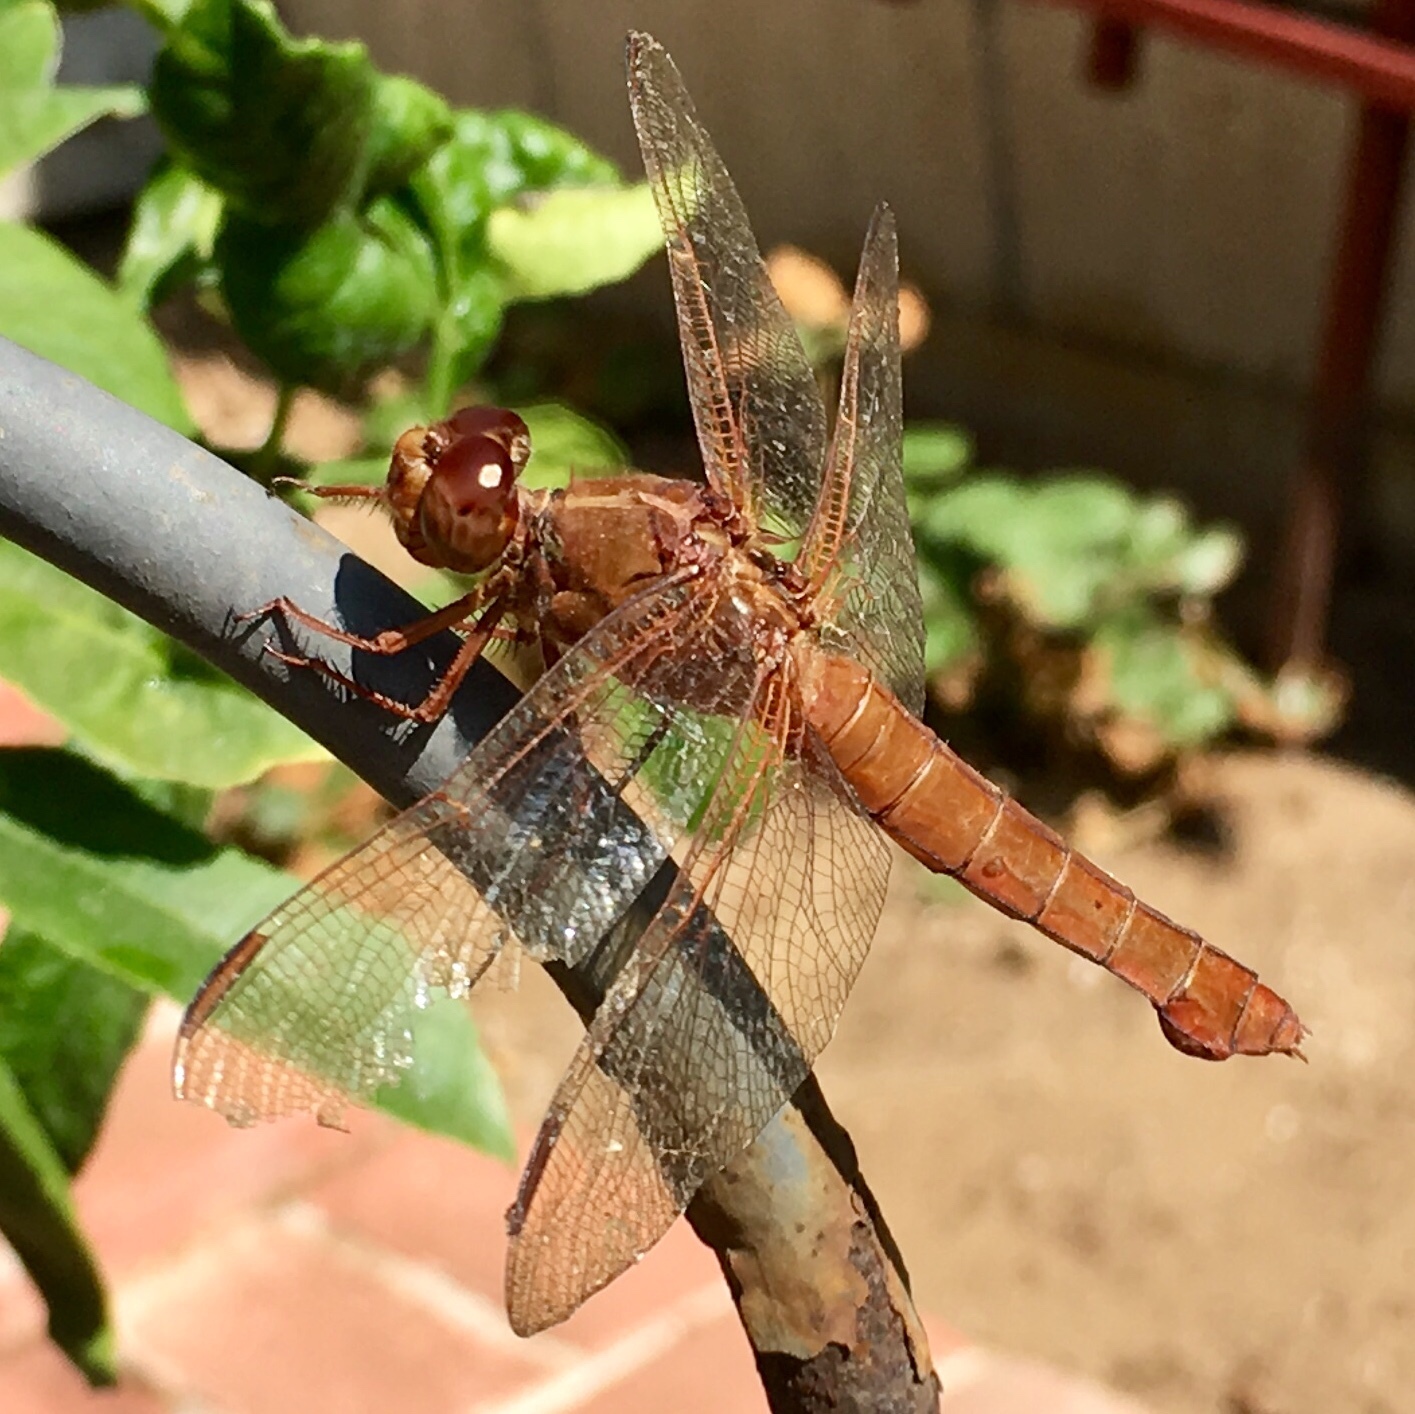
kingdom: Animalia
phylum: Arthropoda
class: Insecta
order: Odonata
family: Libellulidae
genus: Libellula
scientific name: Libellula croceipennis
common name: Neon skimmer
